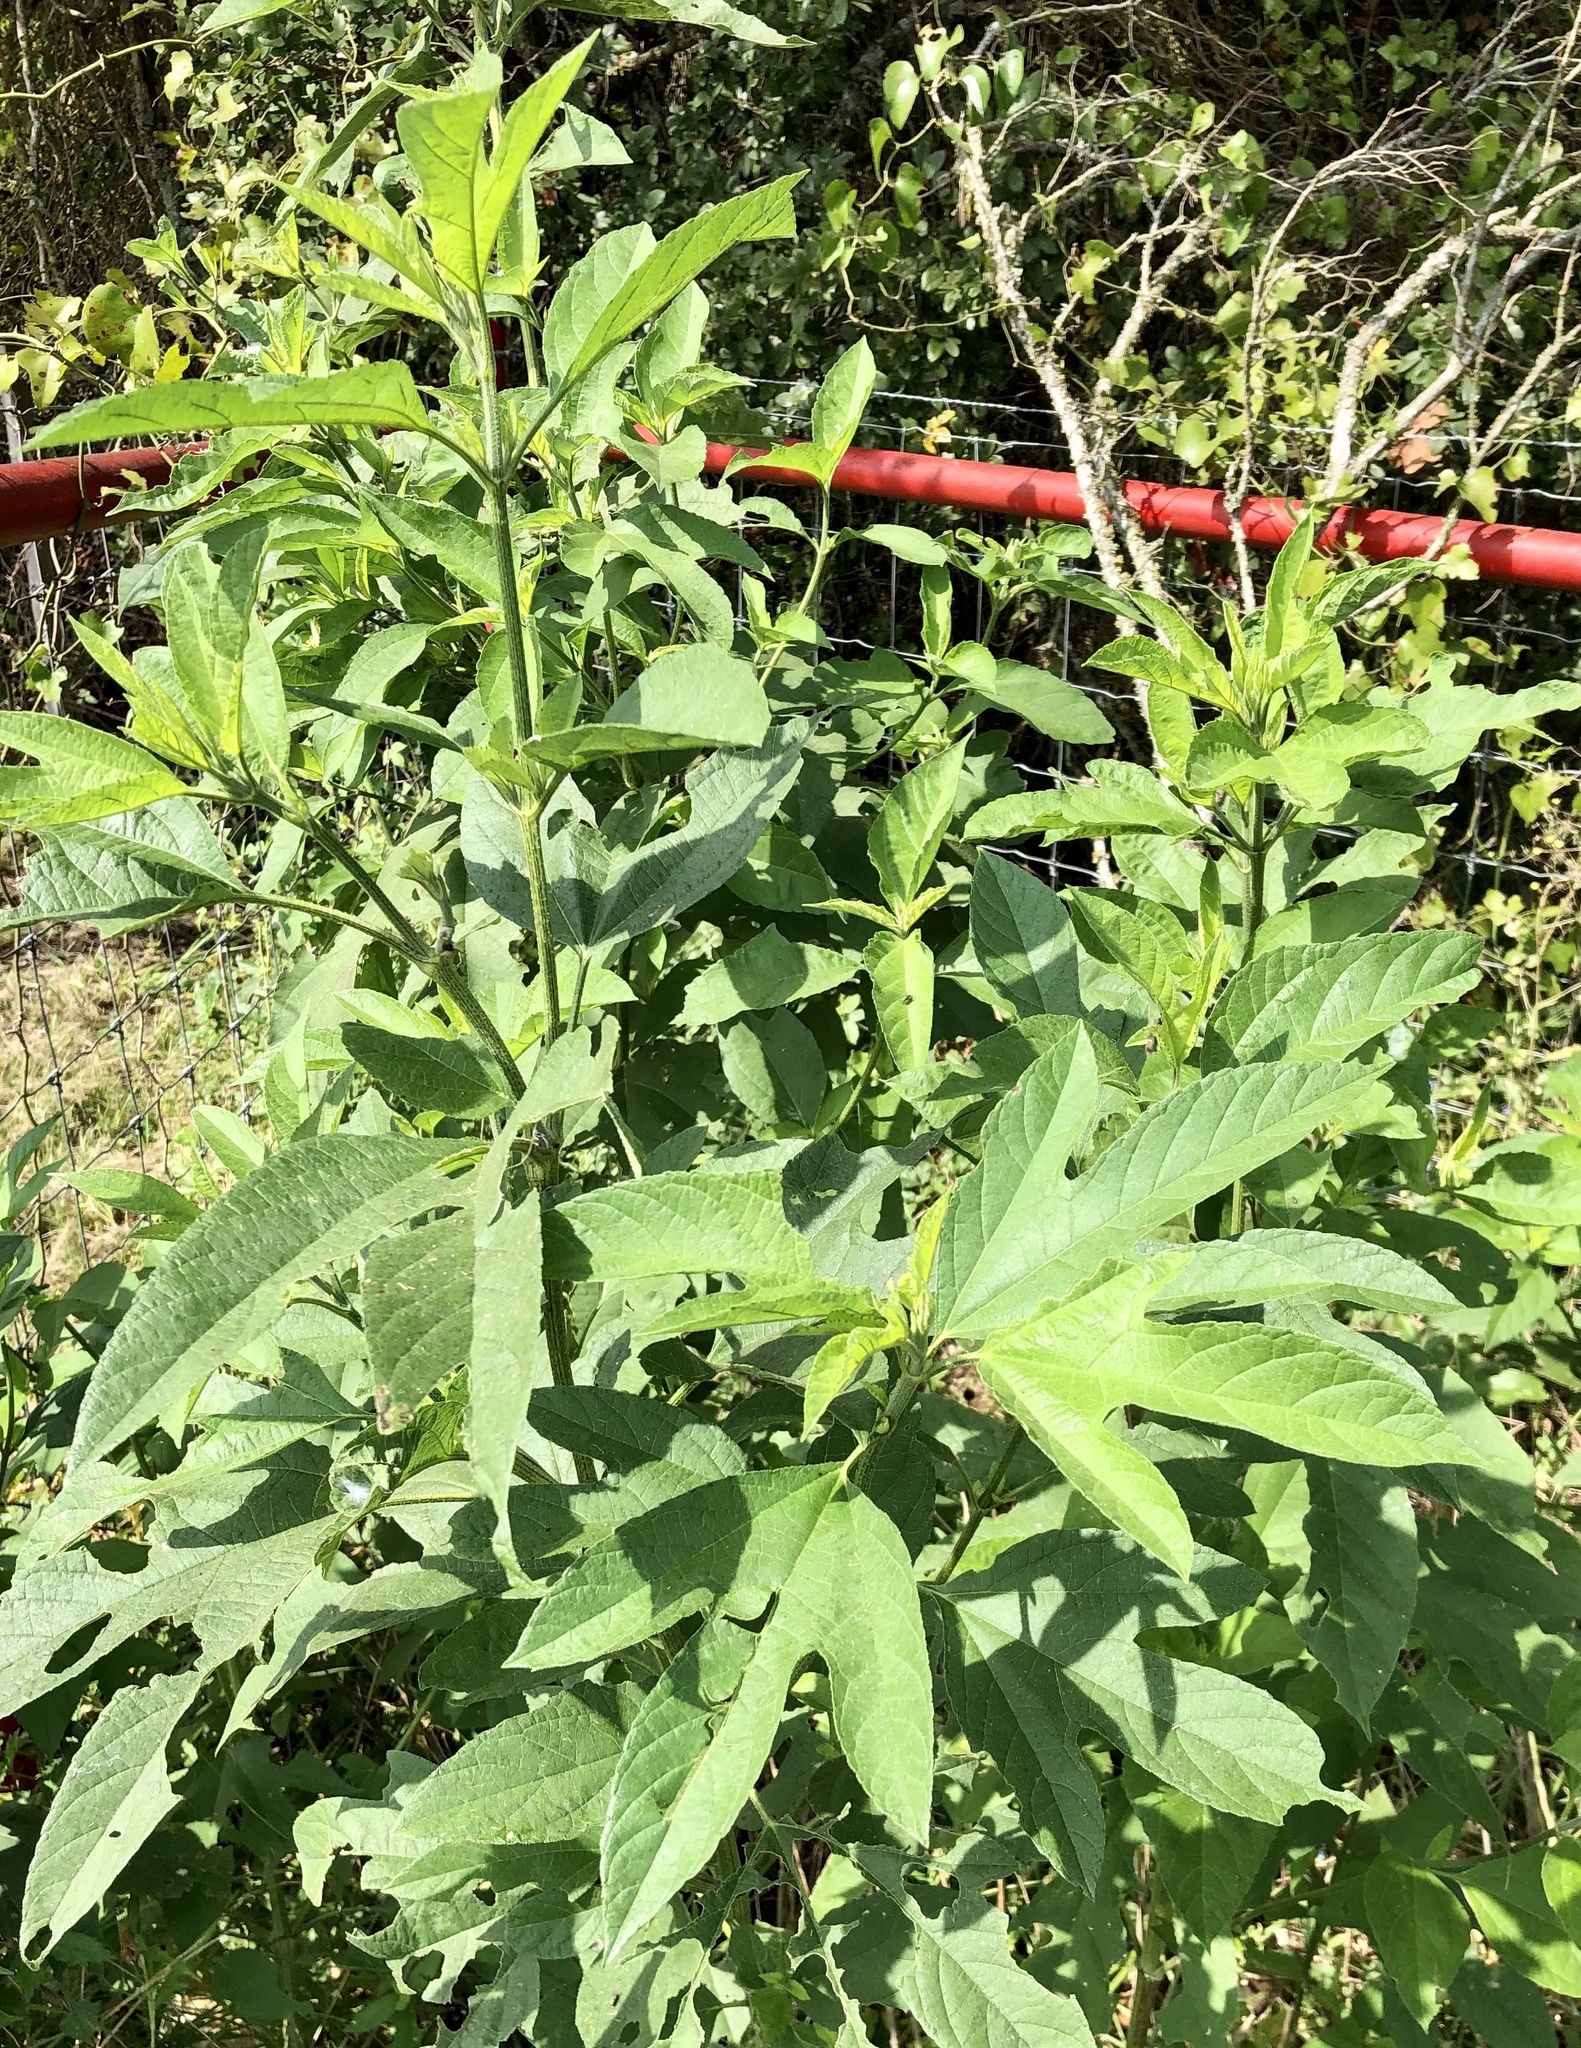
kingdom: Plantae
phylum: Tracheophyta
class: Magnoliopsida
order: Asterales
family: Asteraceae
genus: Ambrosia
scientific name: Ambrosia trifida
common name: Giant ragweed
